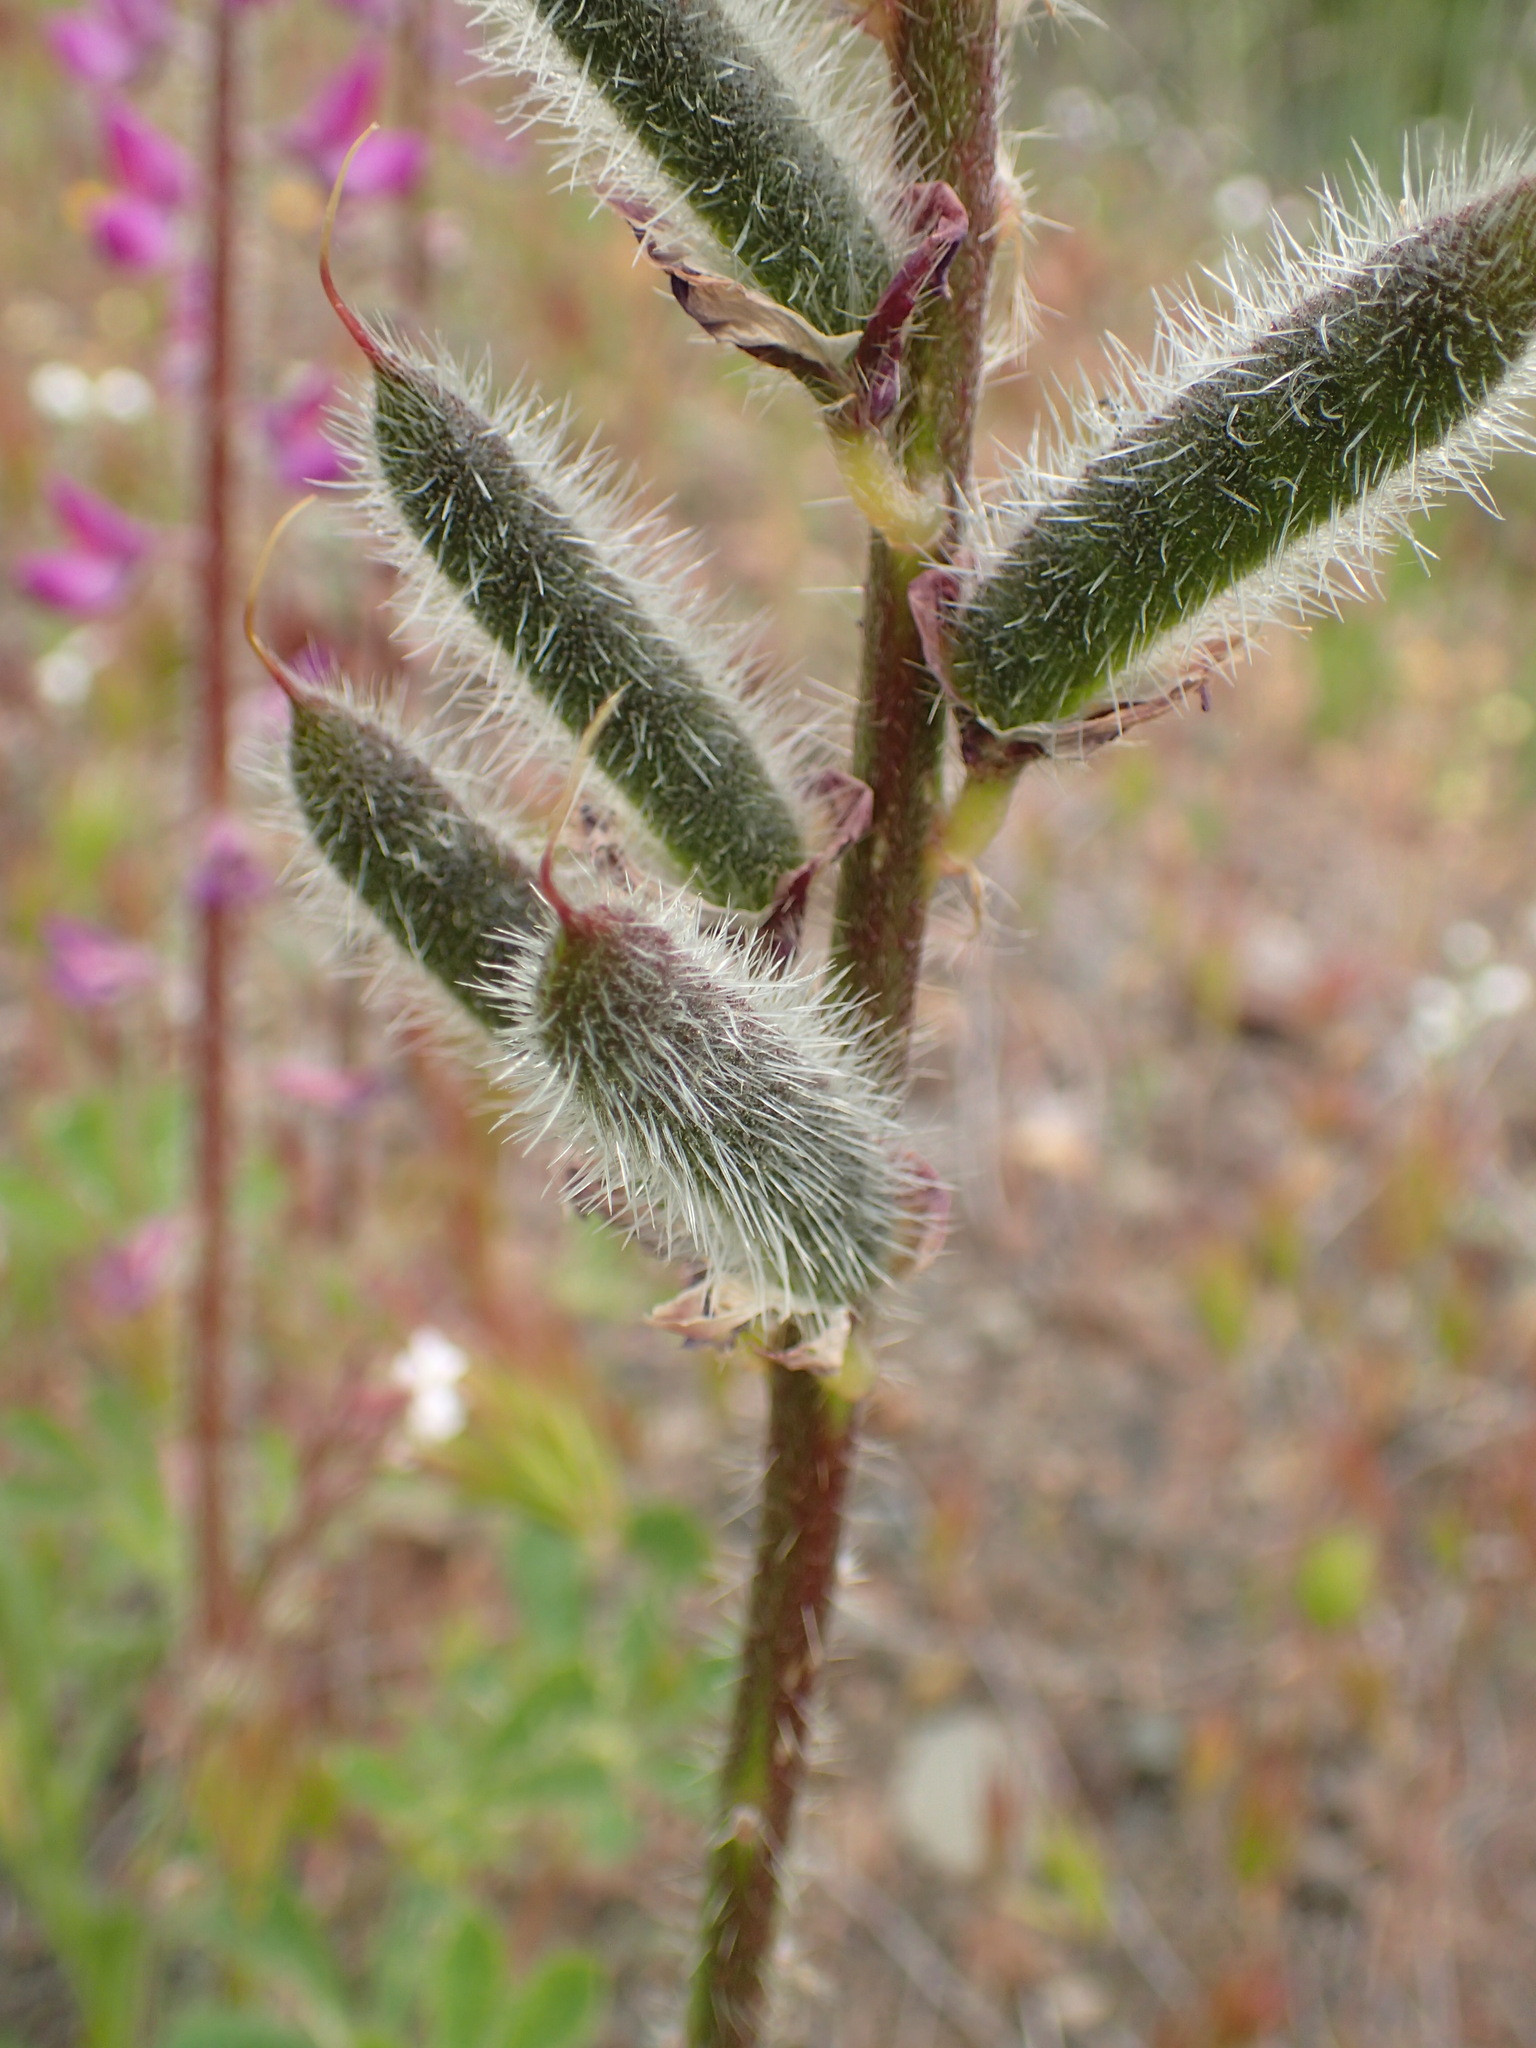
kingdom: Plantae
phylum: Tracheophyta
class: Magnoliopsida
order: Fabales
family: Fabaceae
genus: Lupinus
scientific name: Lupinus hirsutissimus
